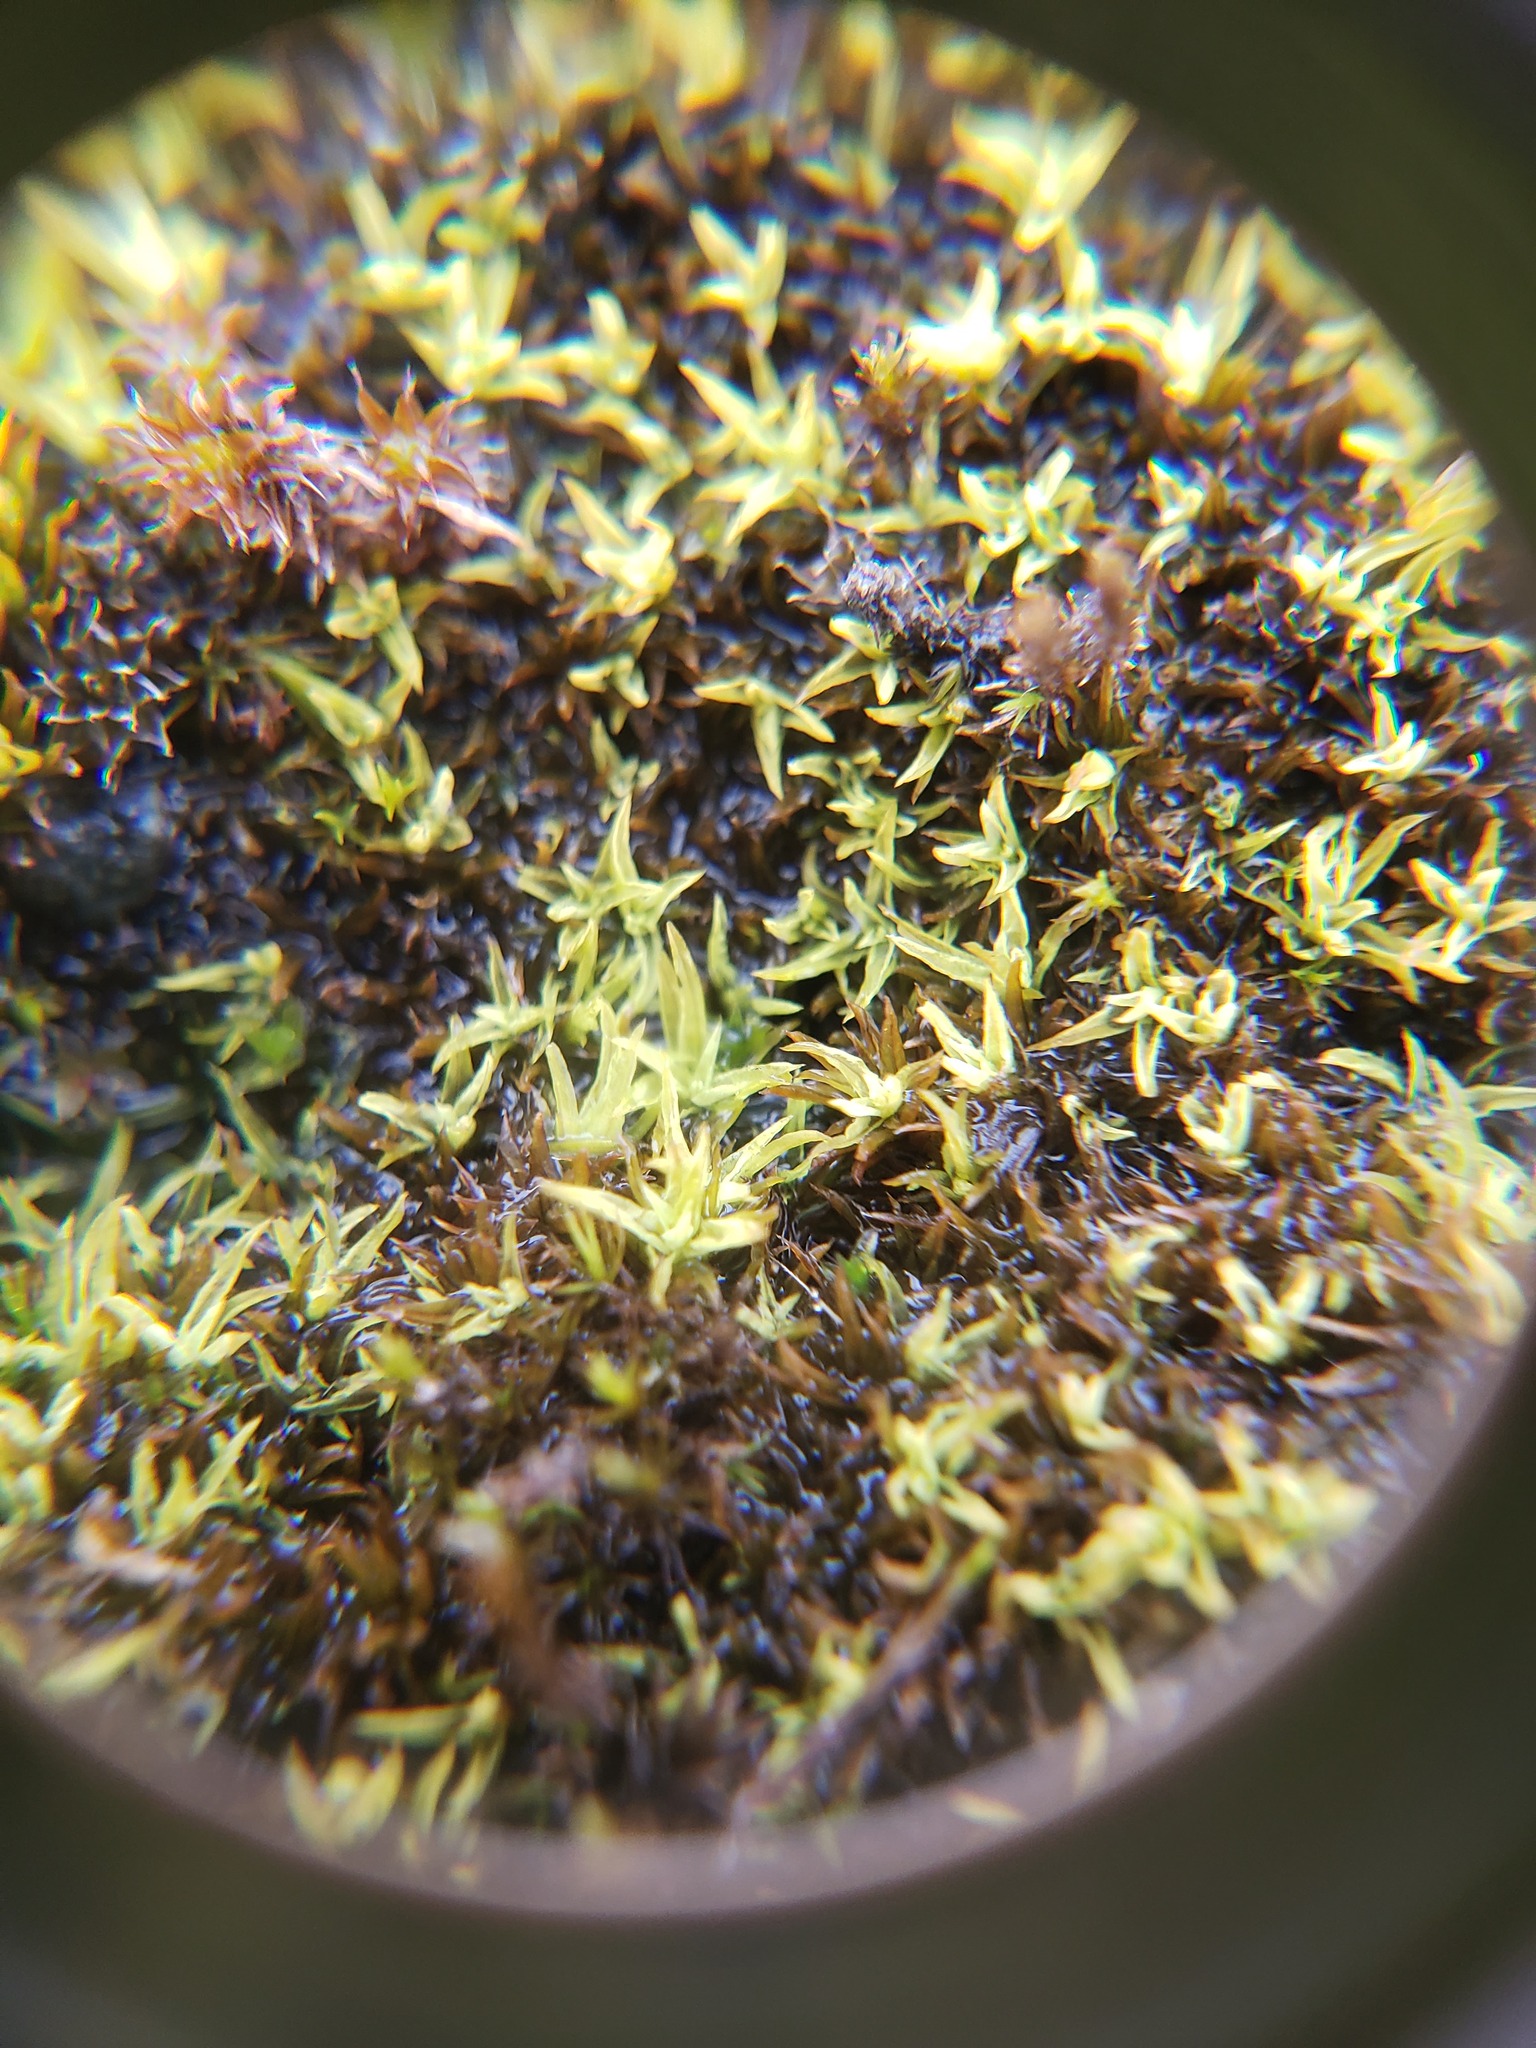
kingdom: Plantae
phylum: Bryophyta
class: Bryopsida
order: Pottiales
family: Pottiaceae
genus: Streblotrichum
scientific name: Streblotrichum convolutum
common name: Lesser bird's-claw beard-moss
